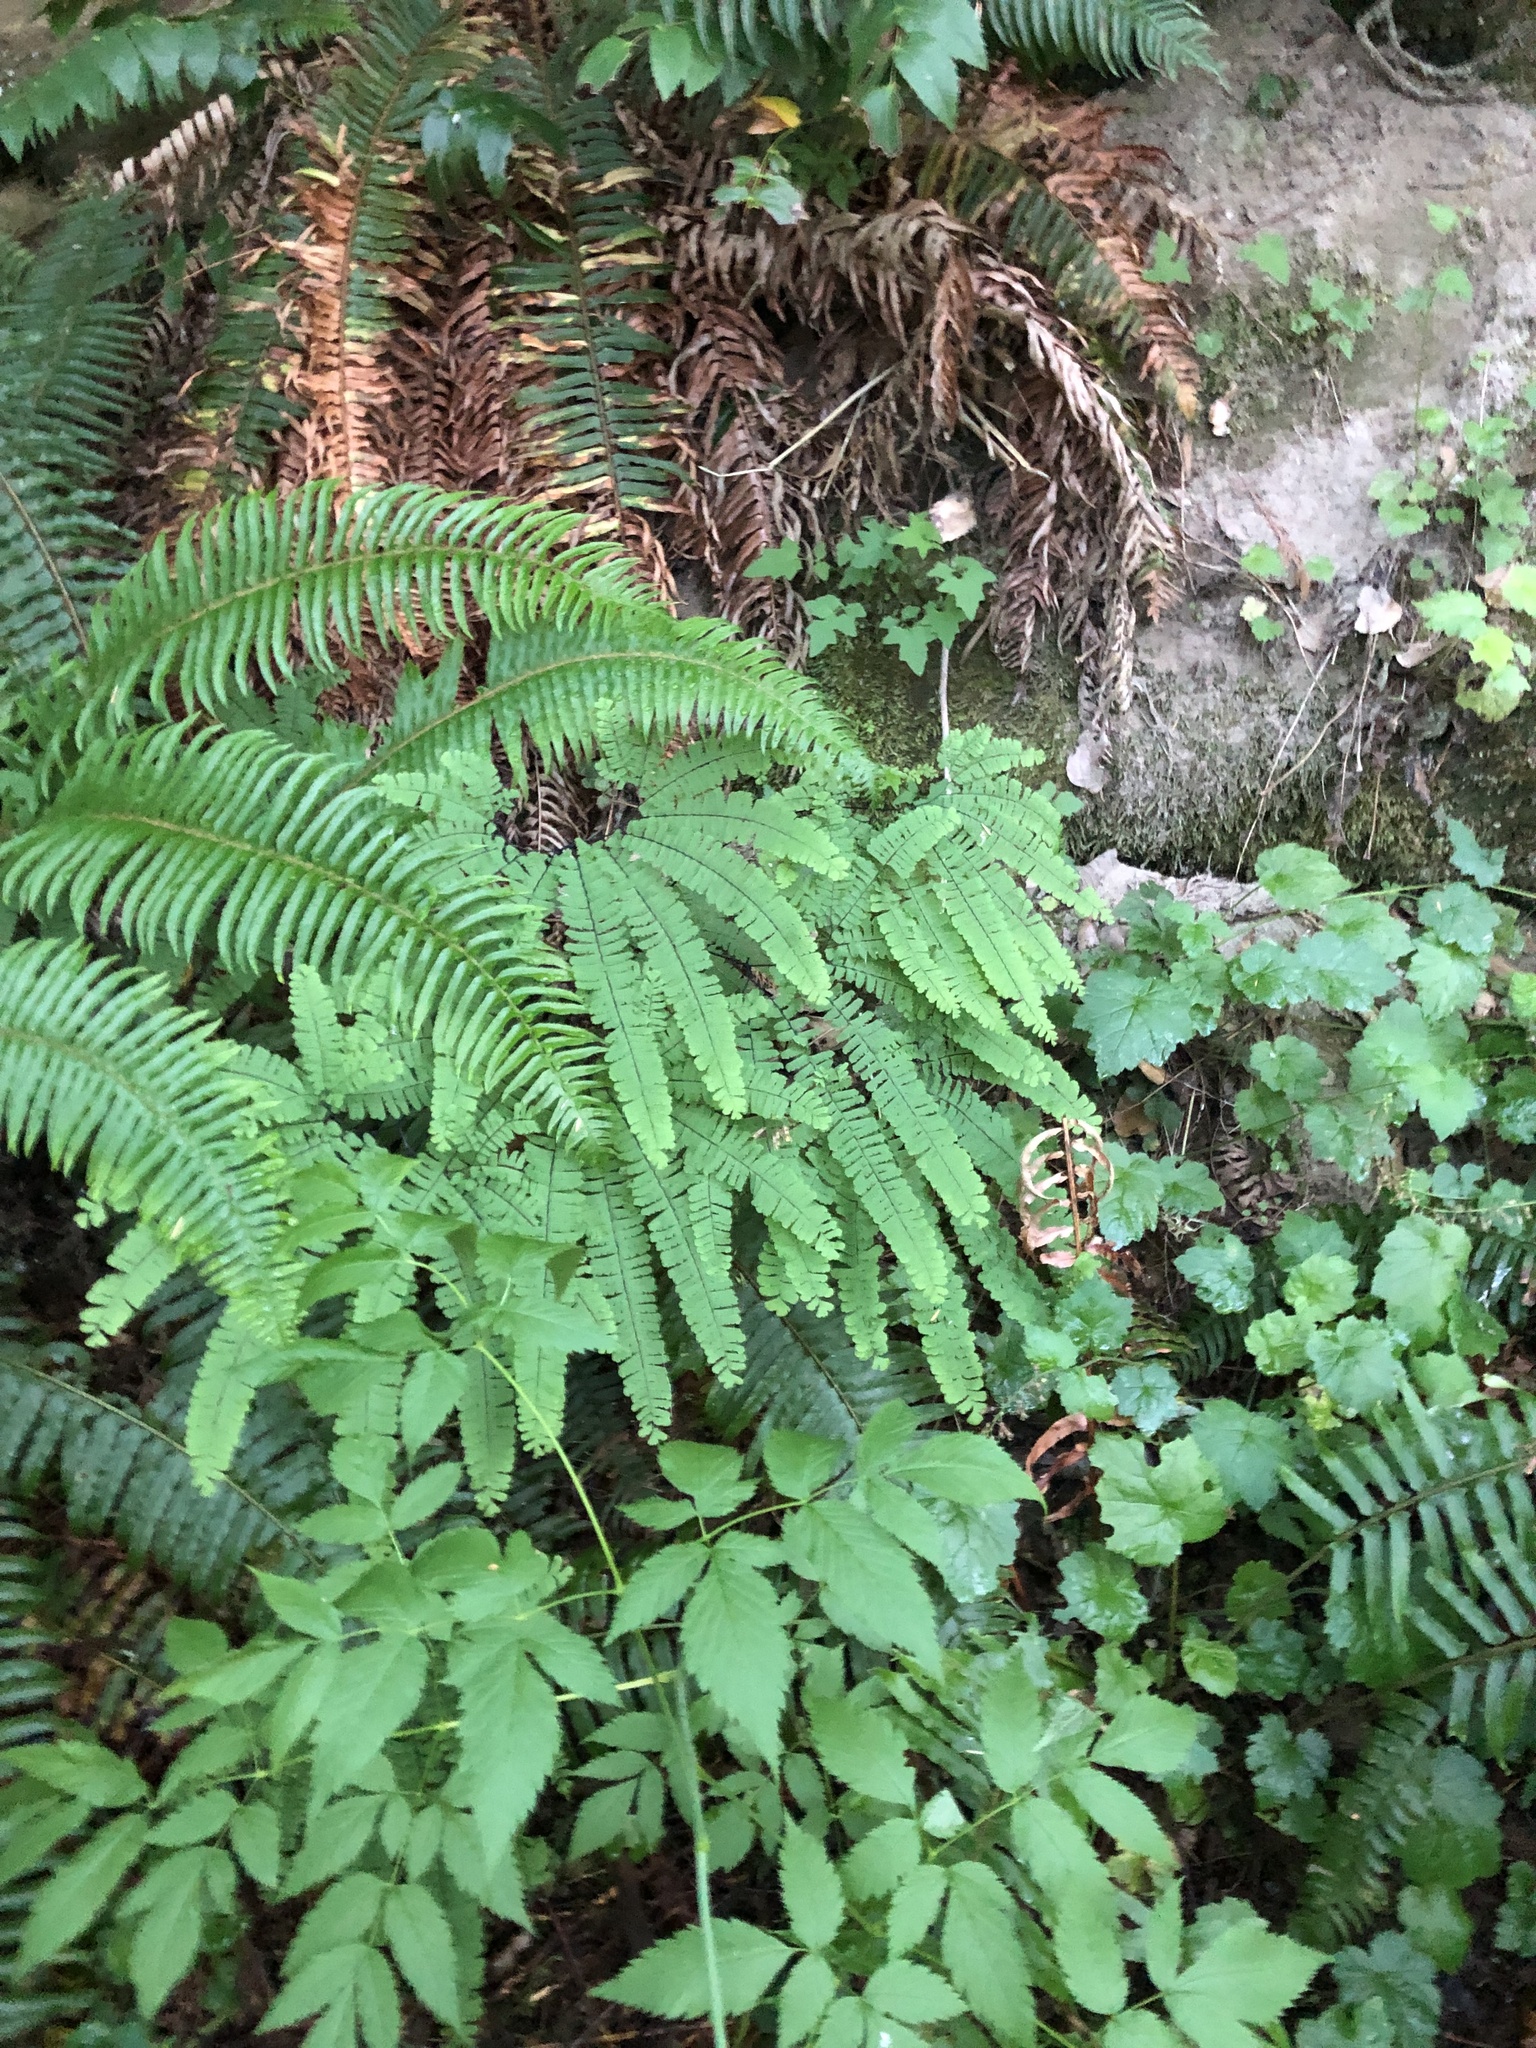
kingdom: Plantae
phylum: Tracheophyta
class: Polypodiopsida
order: Polypodiales
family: Pteridaceae
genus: Adiantum
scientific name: Adiantum aleuticum
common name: Aleutian maidenhair fern
